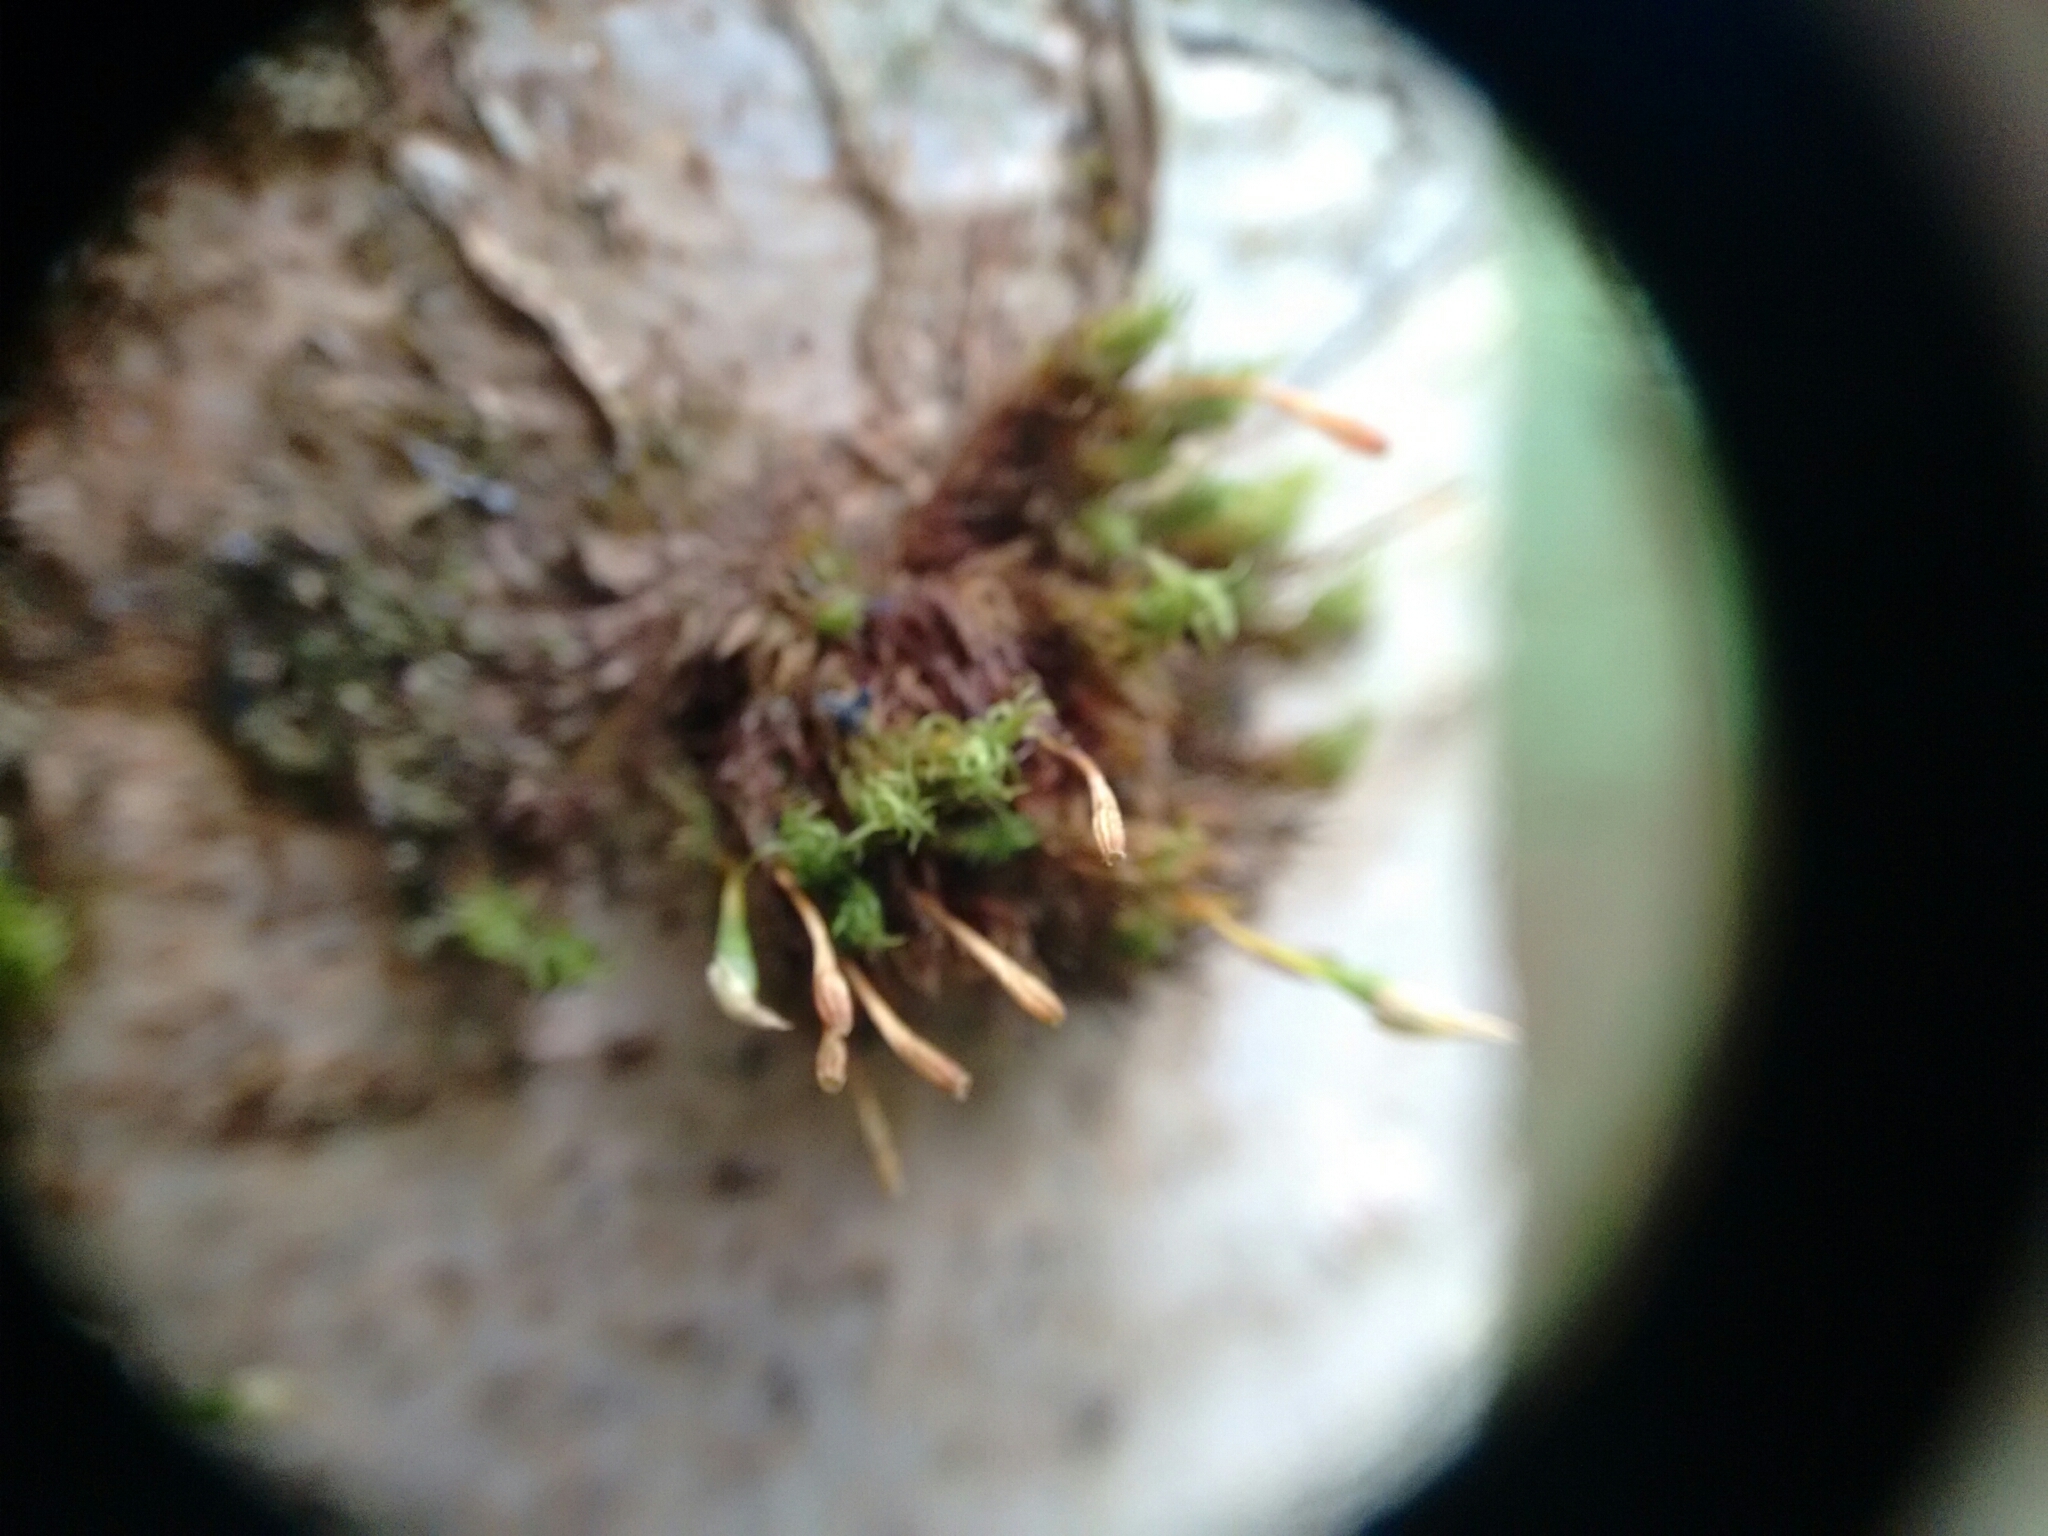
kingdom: Plantae
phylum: Bryophyta
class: Bryopsida
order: Orthotrichales
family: Orthotrichaceae
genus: Ulota
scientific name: Ulota bruchii
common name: Bruch's pincushion
